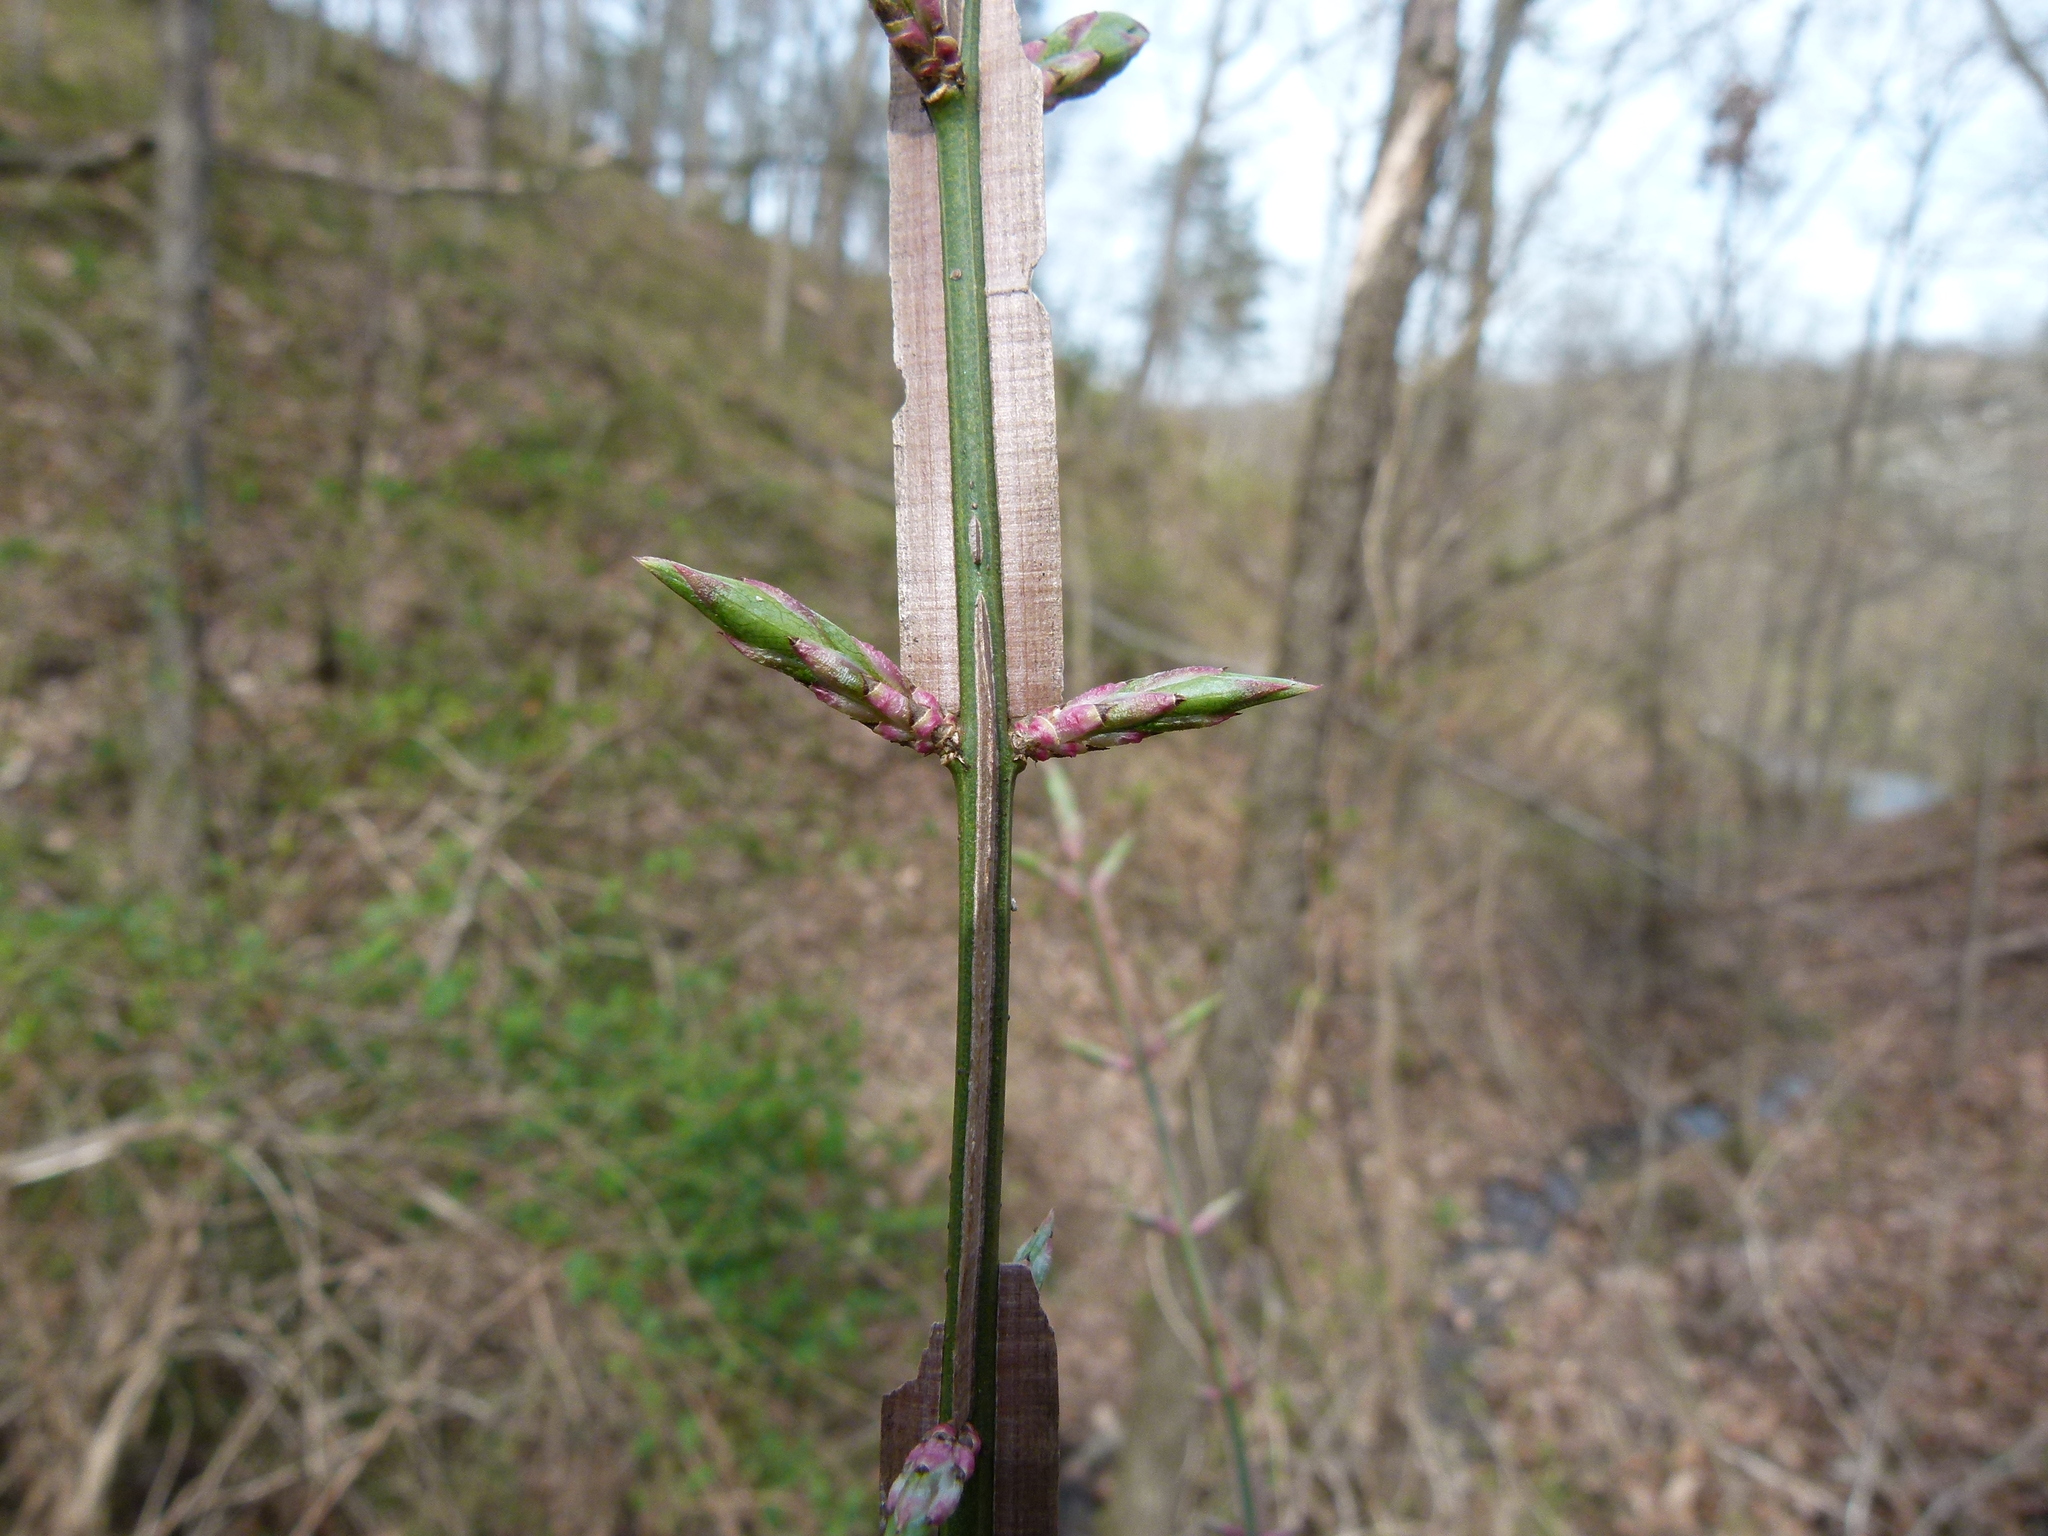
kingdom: Plantae
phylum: Tracheophyta
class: Magnoliopsida
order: Celastrales
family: Celastraceae
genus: Euonymus
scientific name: Euonymus alatus
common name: Winged euonymus
